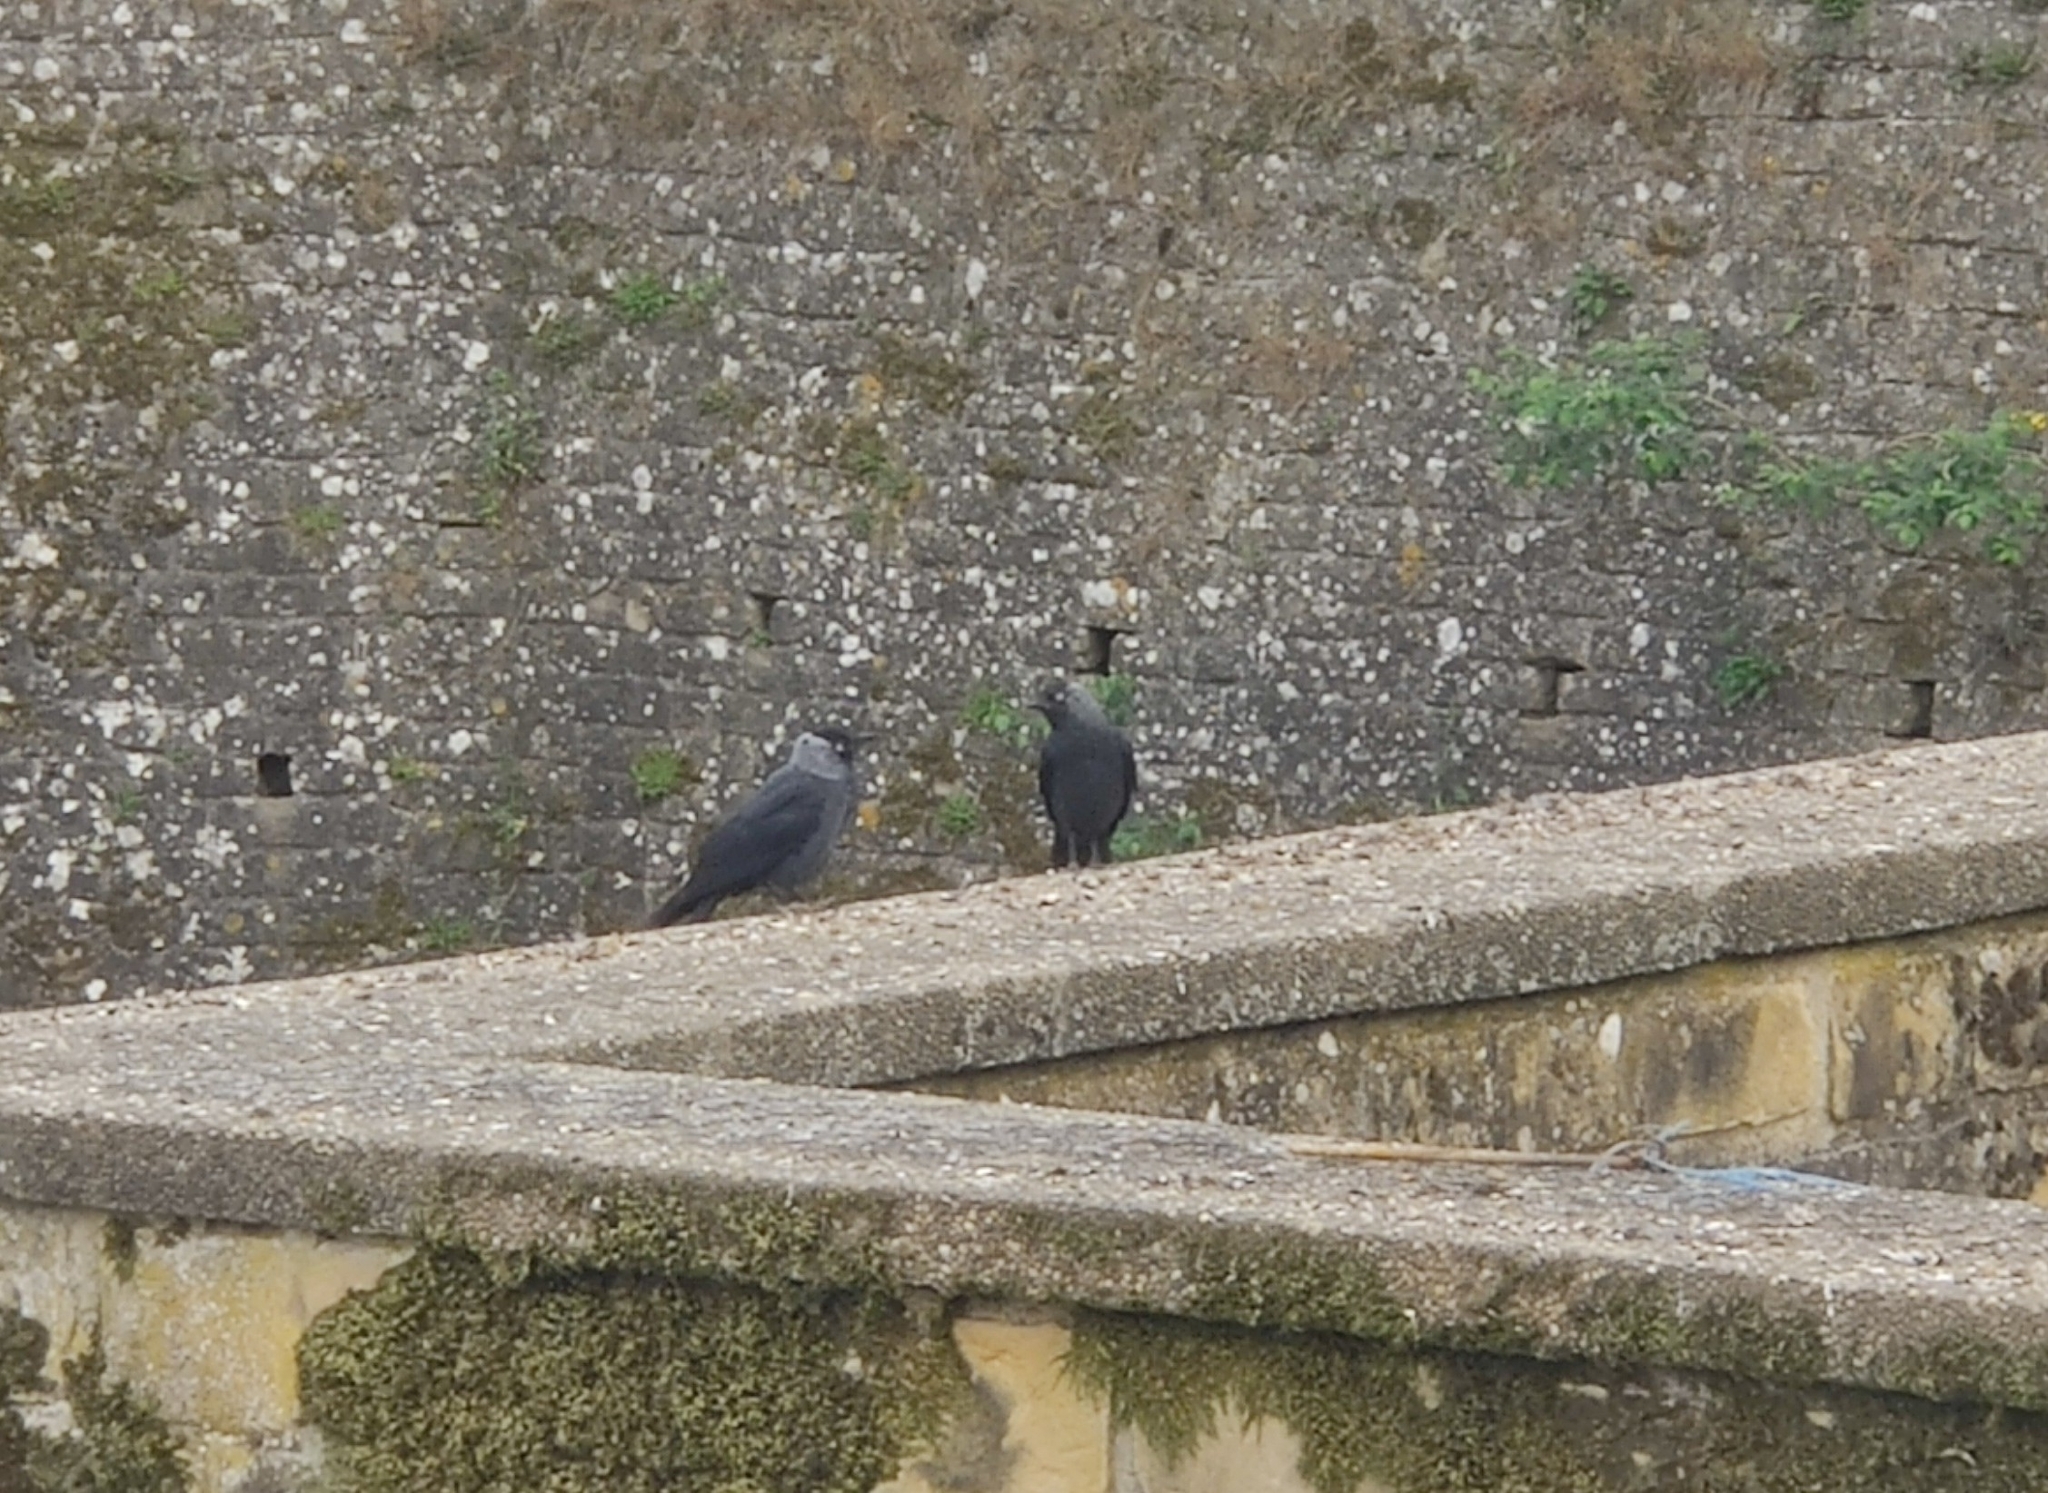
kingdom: Animalia
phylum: Chordata
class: Aves
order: Passeriformes
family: Corvidae
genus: Coloeus
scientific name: Coloeus monedula
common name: Western jackdaw
